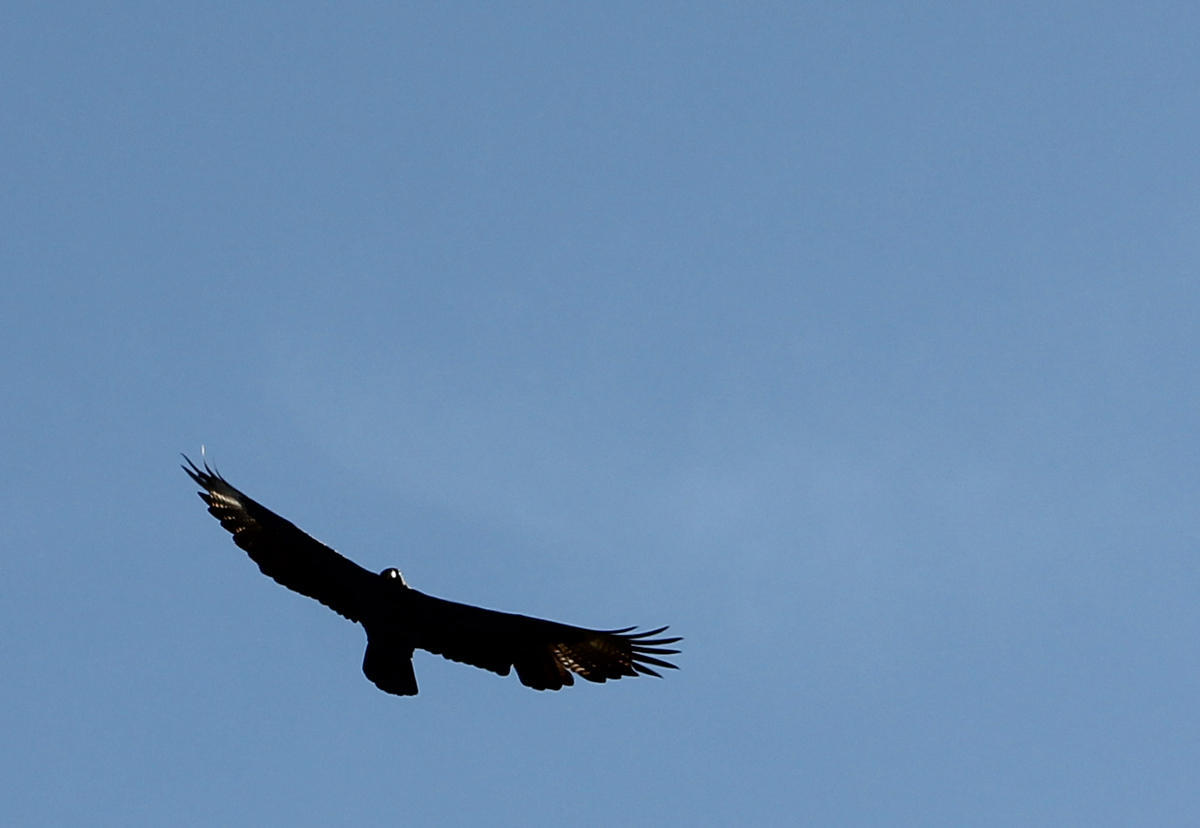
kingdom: Animalia
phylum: Chordata
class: Aves
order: Accipitriformes
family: Accipitridae
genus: Aquila
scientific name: Aquila verreauxii
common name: Verreaux's eagle
